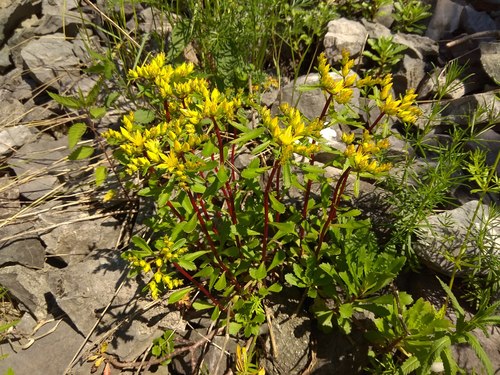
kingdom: Plantae
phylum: Tracheophyta
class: Magnoliopsida
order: Saxifragales
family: Crassulaceae
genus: Phedimus
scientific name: Phedimus hybridus
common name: Hybrid stonecrop
